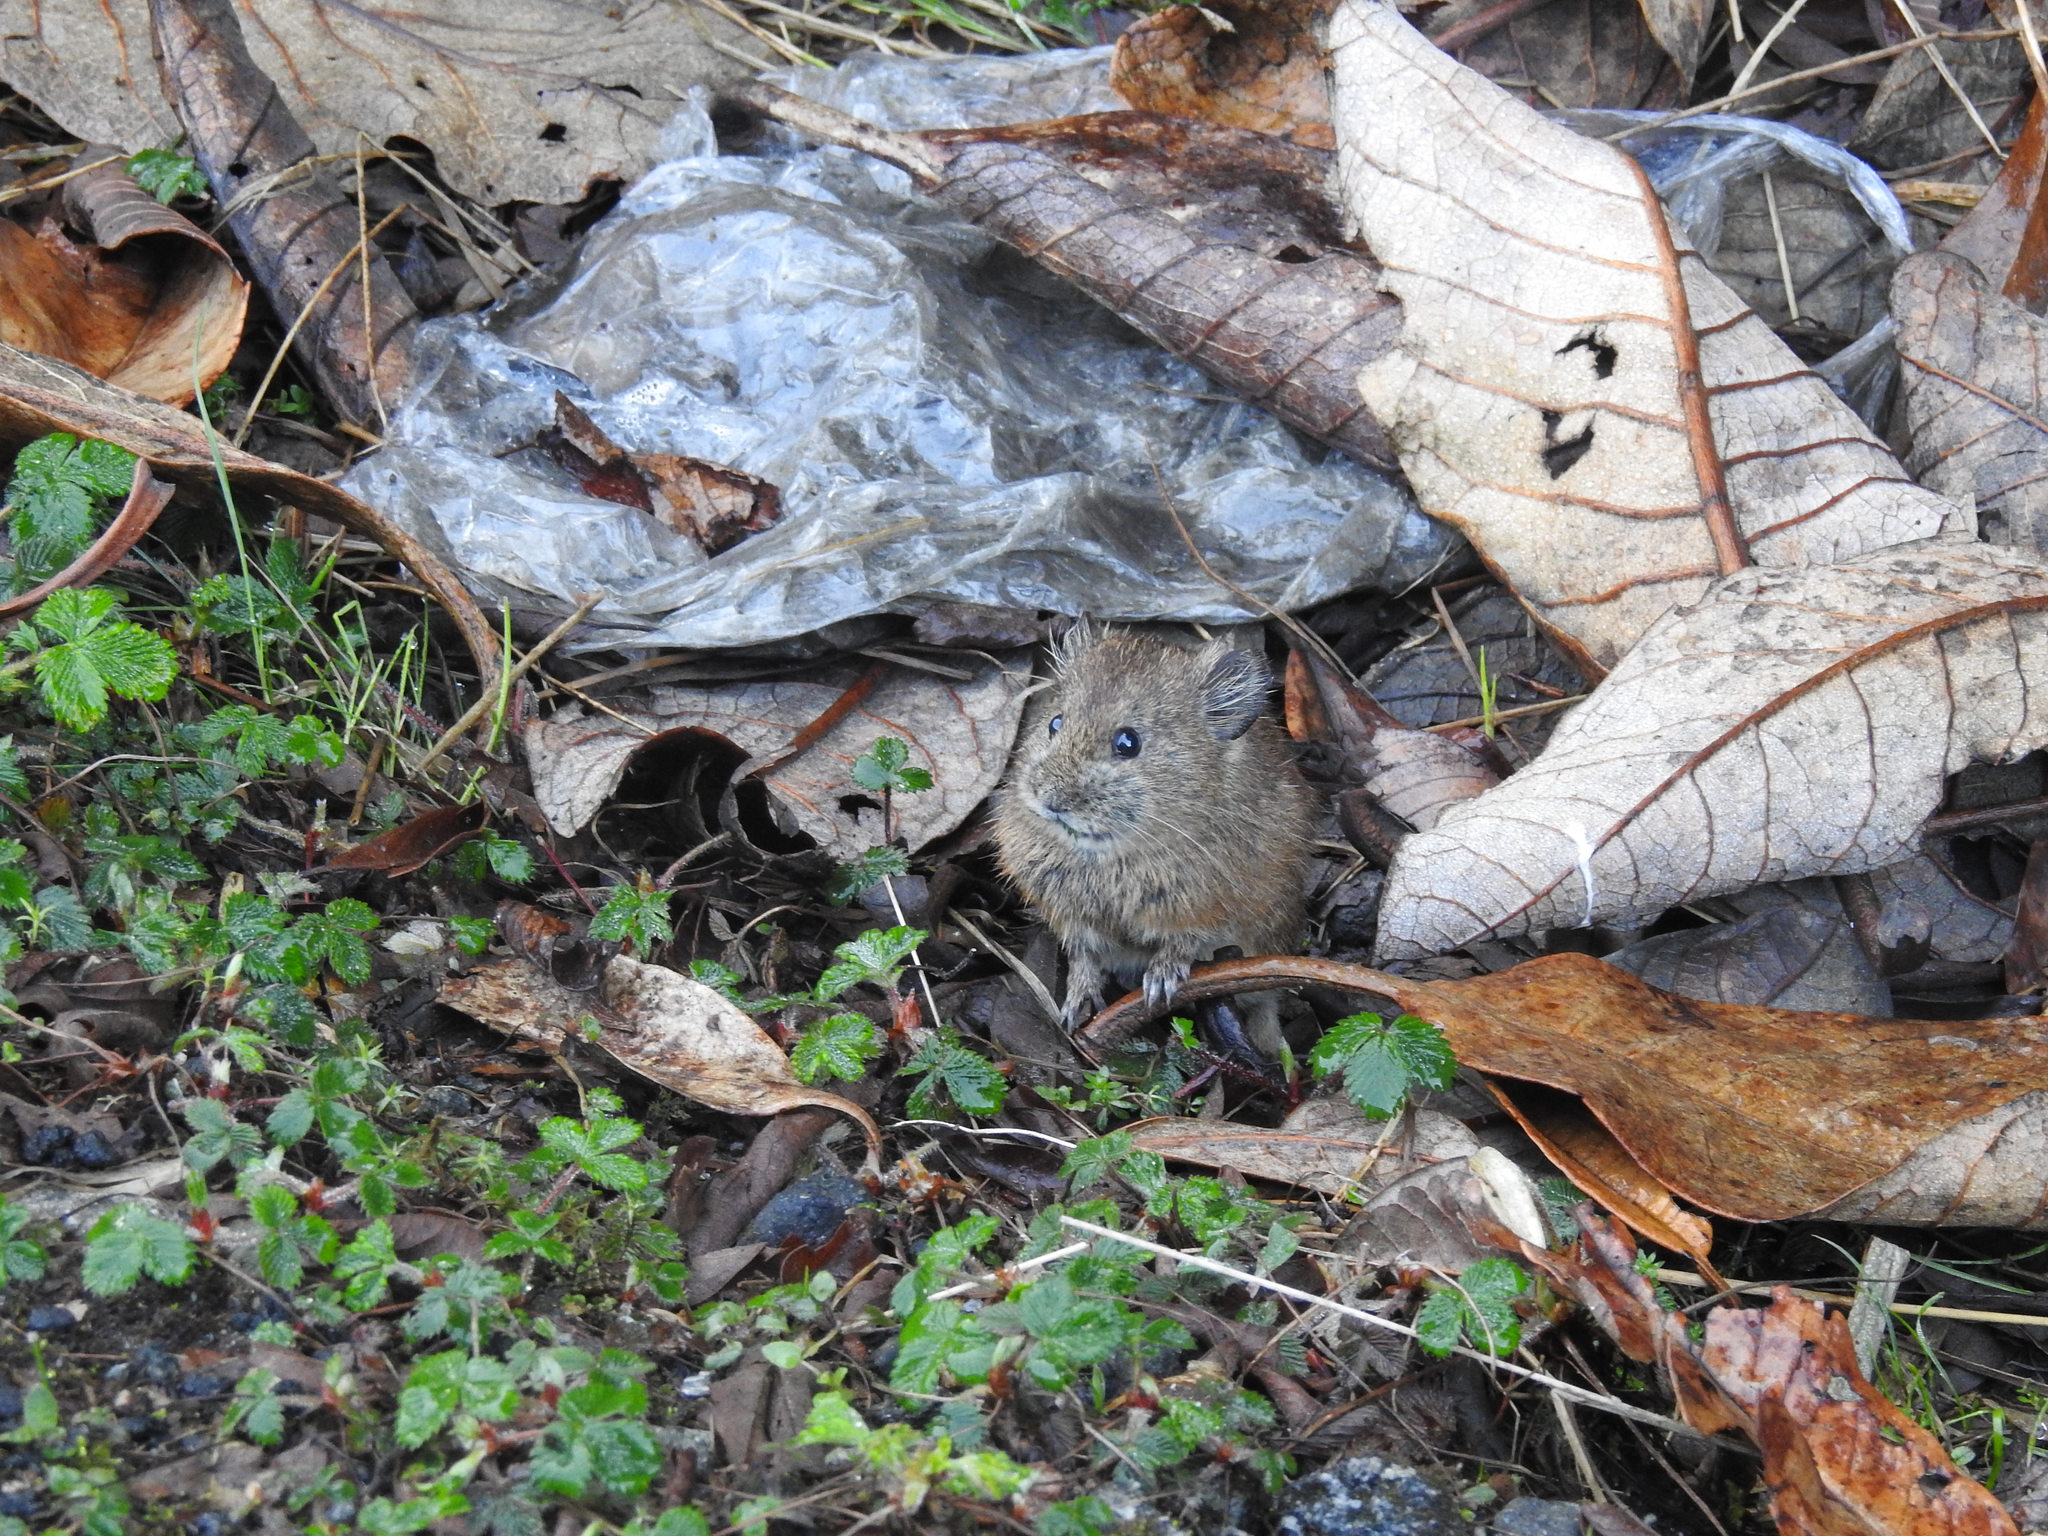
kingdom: Animalia
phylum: Chordata
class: Mammalia
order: Lagomorpha
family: Ochotonidae
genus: Ochotona
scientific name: Ochotona macrotis
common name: Large-eared pika
